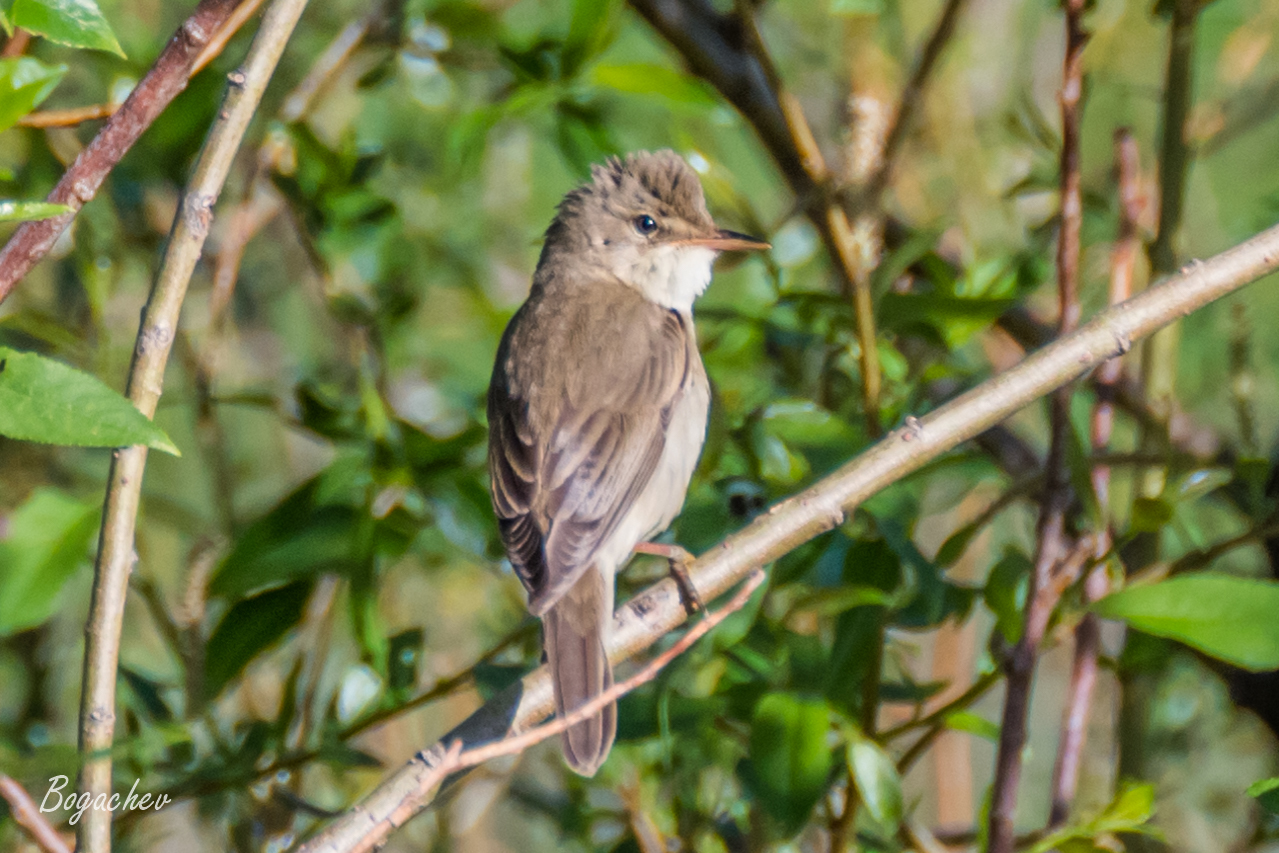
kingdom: Animalia
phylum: Chordata
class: Aves
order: Passeriformes
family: Acrocephalidae
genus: Acrocephalus
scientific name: Acrocephalus palustris
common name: Marsh warbler
